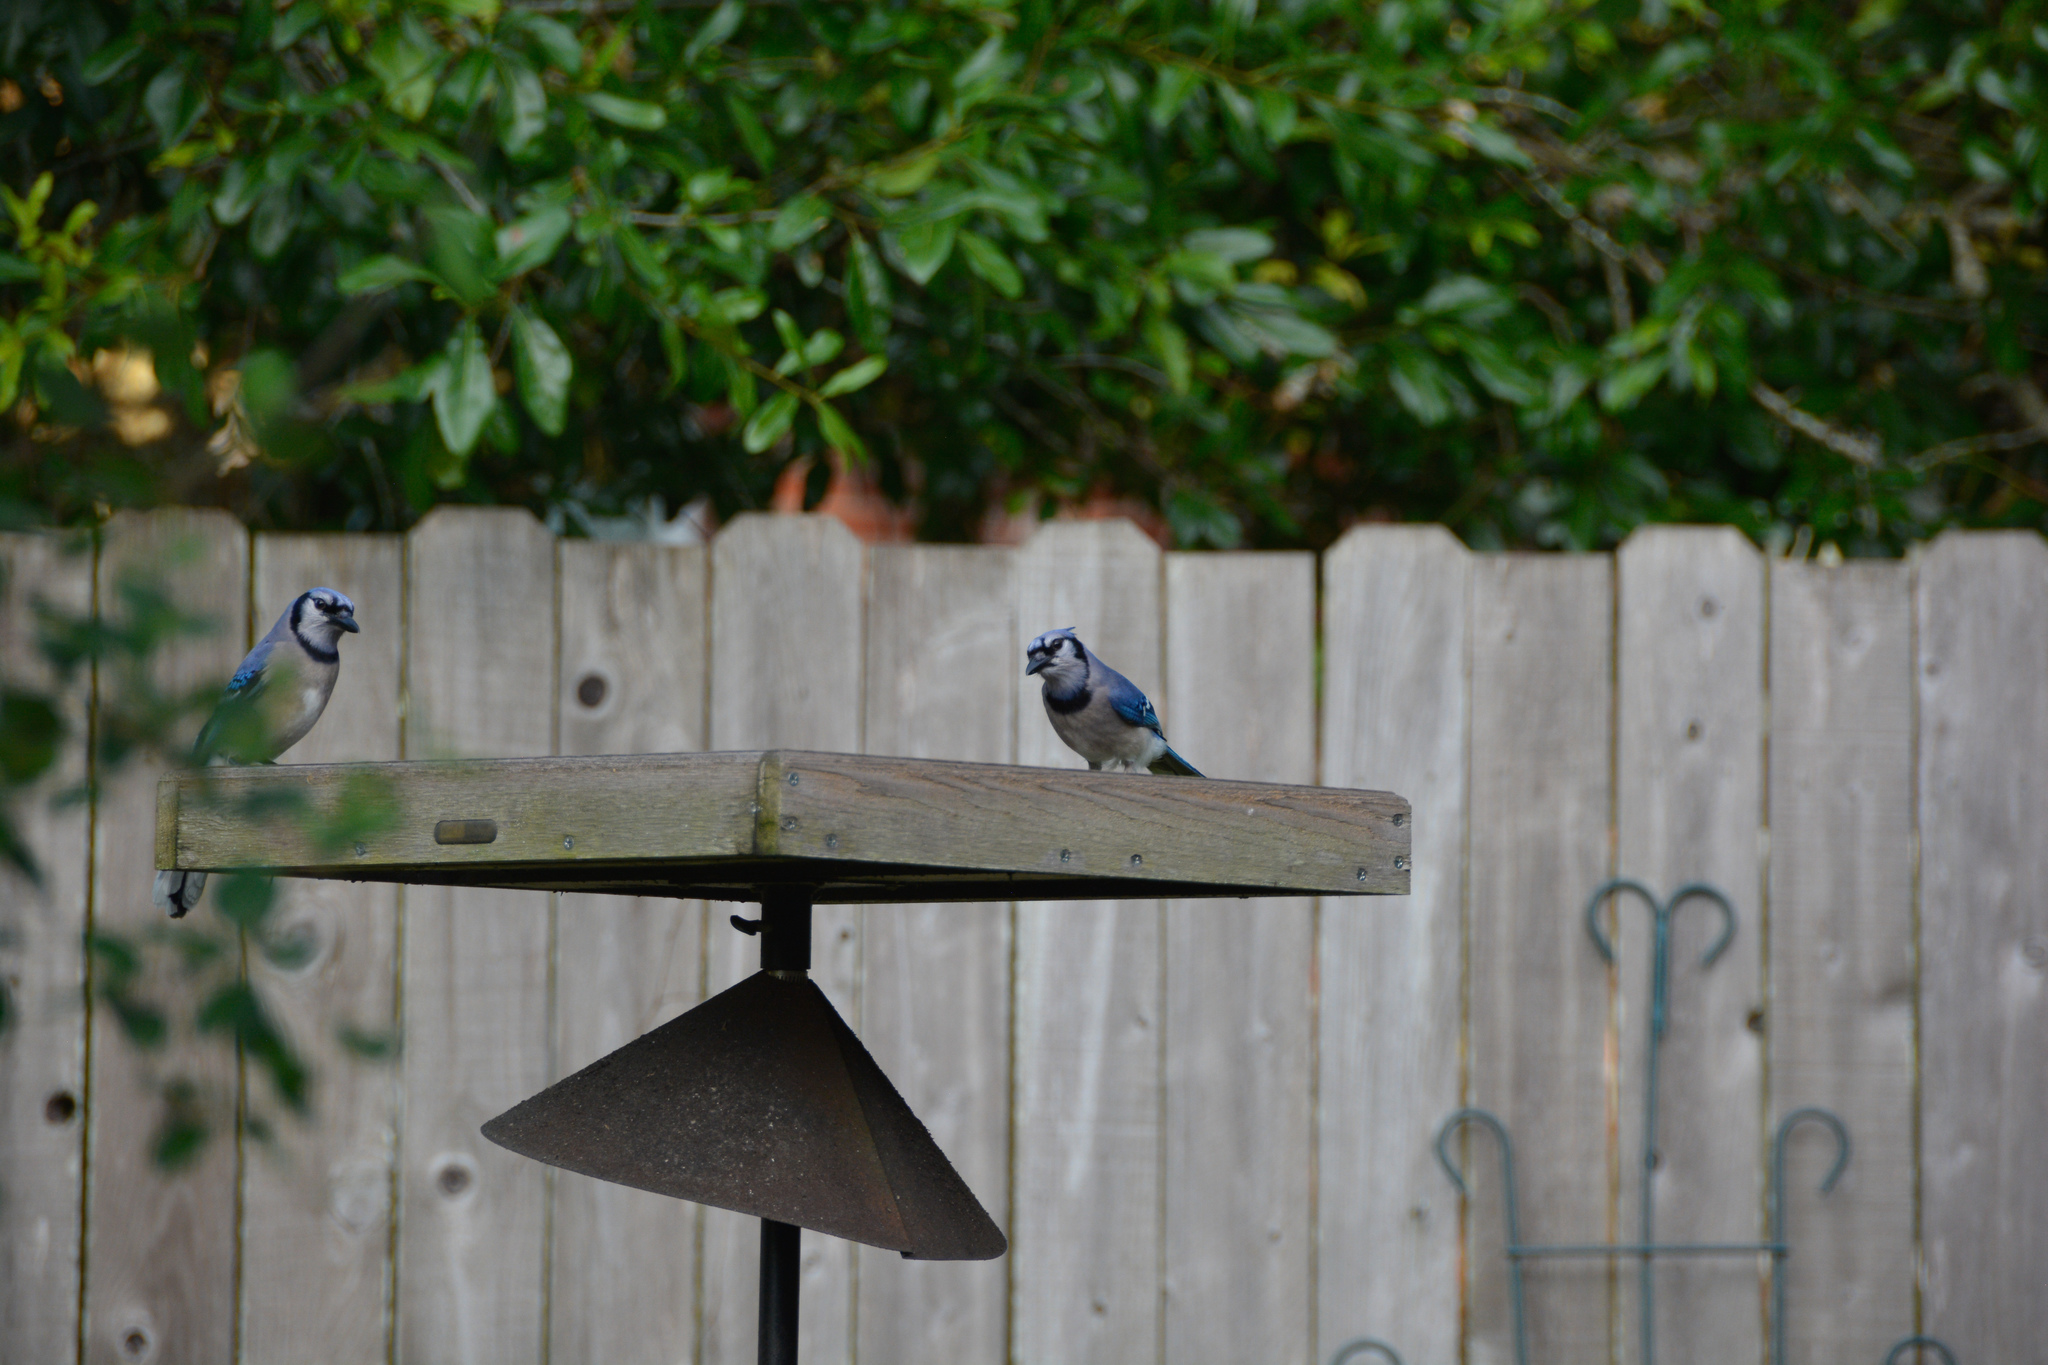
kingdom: Animalia
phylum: Chordata
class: Aves
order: Passeriformes
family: Corvidae
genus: Cyanocitta
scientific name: Cyanocitta cristata
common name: Blue jay
